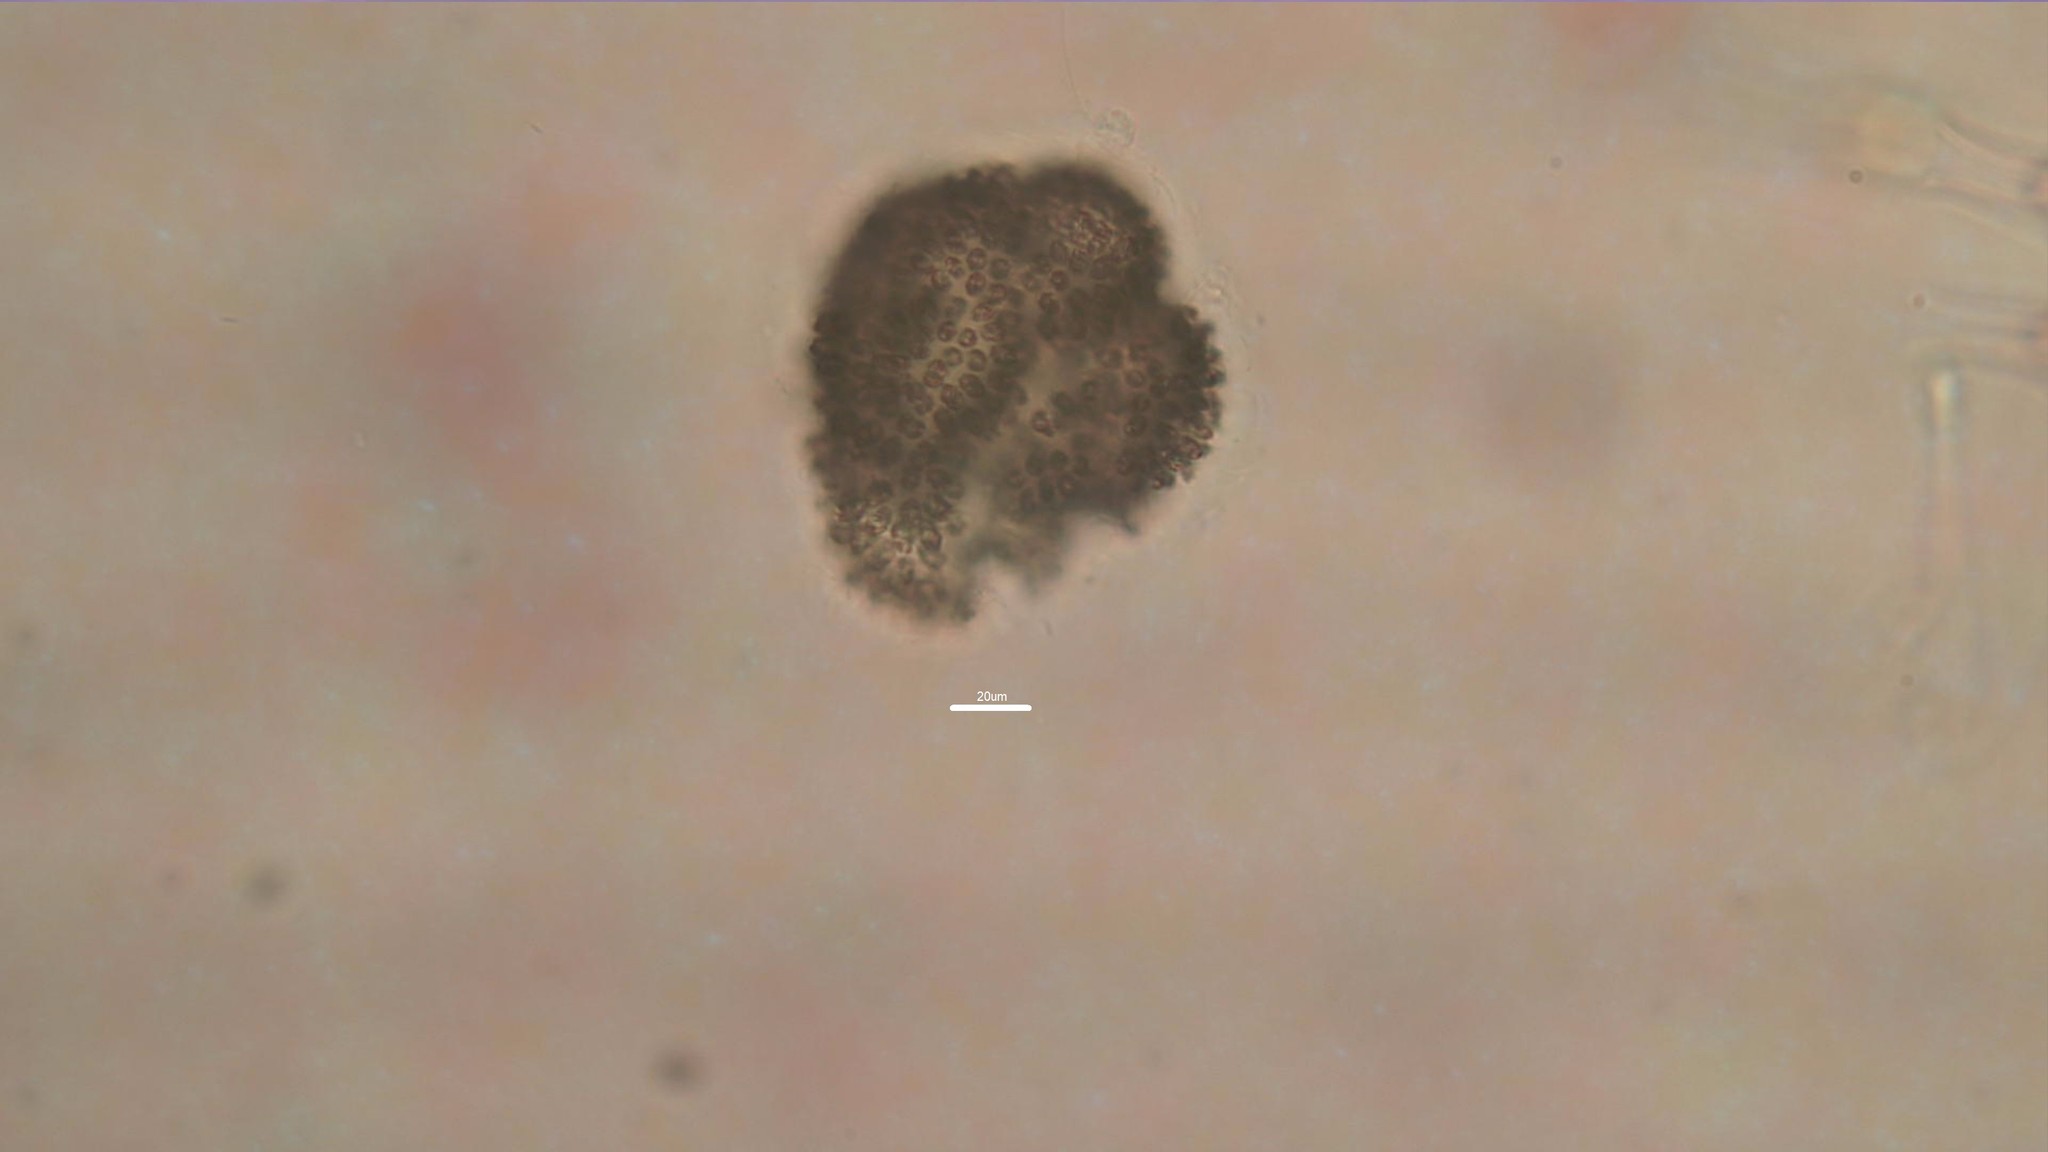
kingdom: Bacteria
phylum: Cyanobacteria
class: Cyanobacteriia
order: Synechococcales
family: Coelosphaeriaceae
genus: Woronichinia
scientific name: Woronichinia naegeliana
